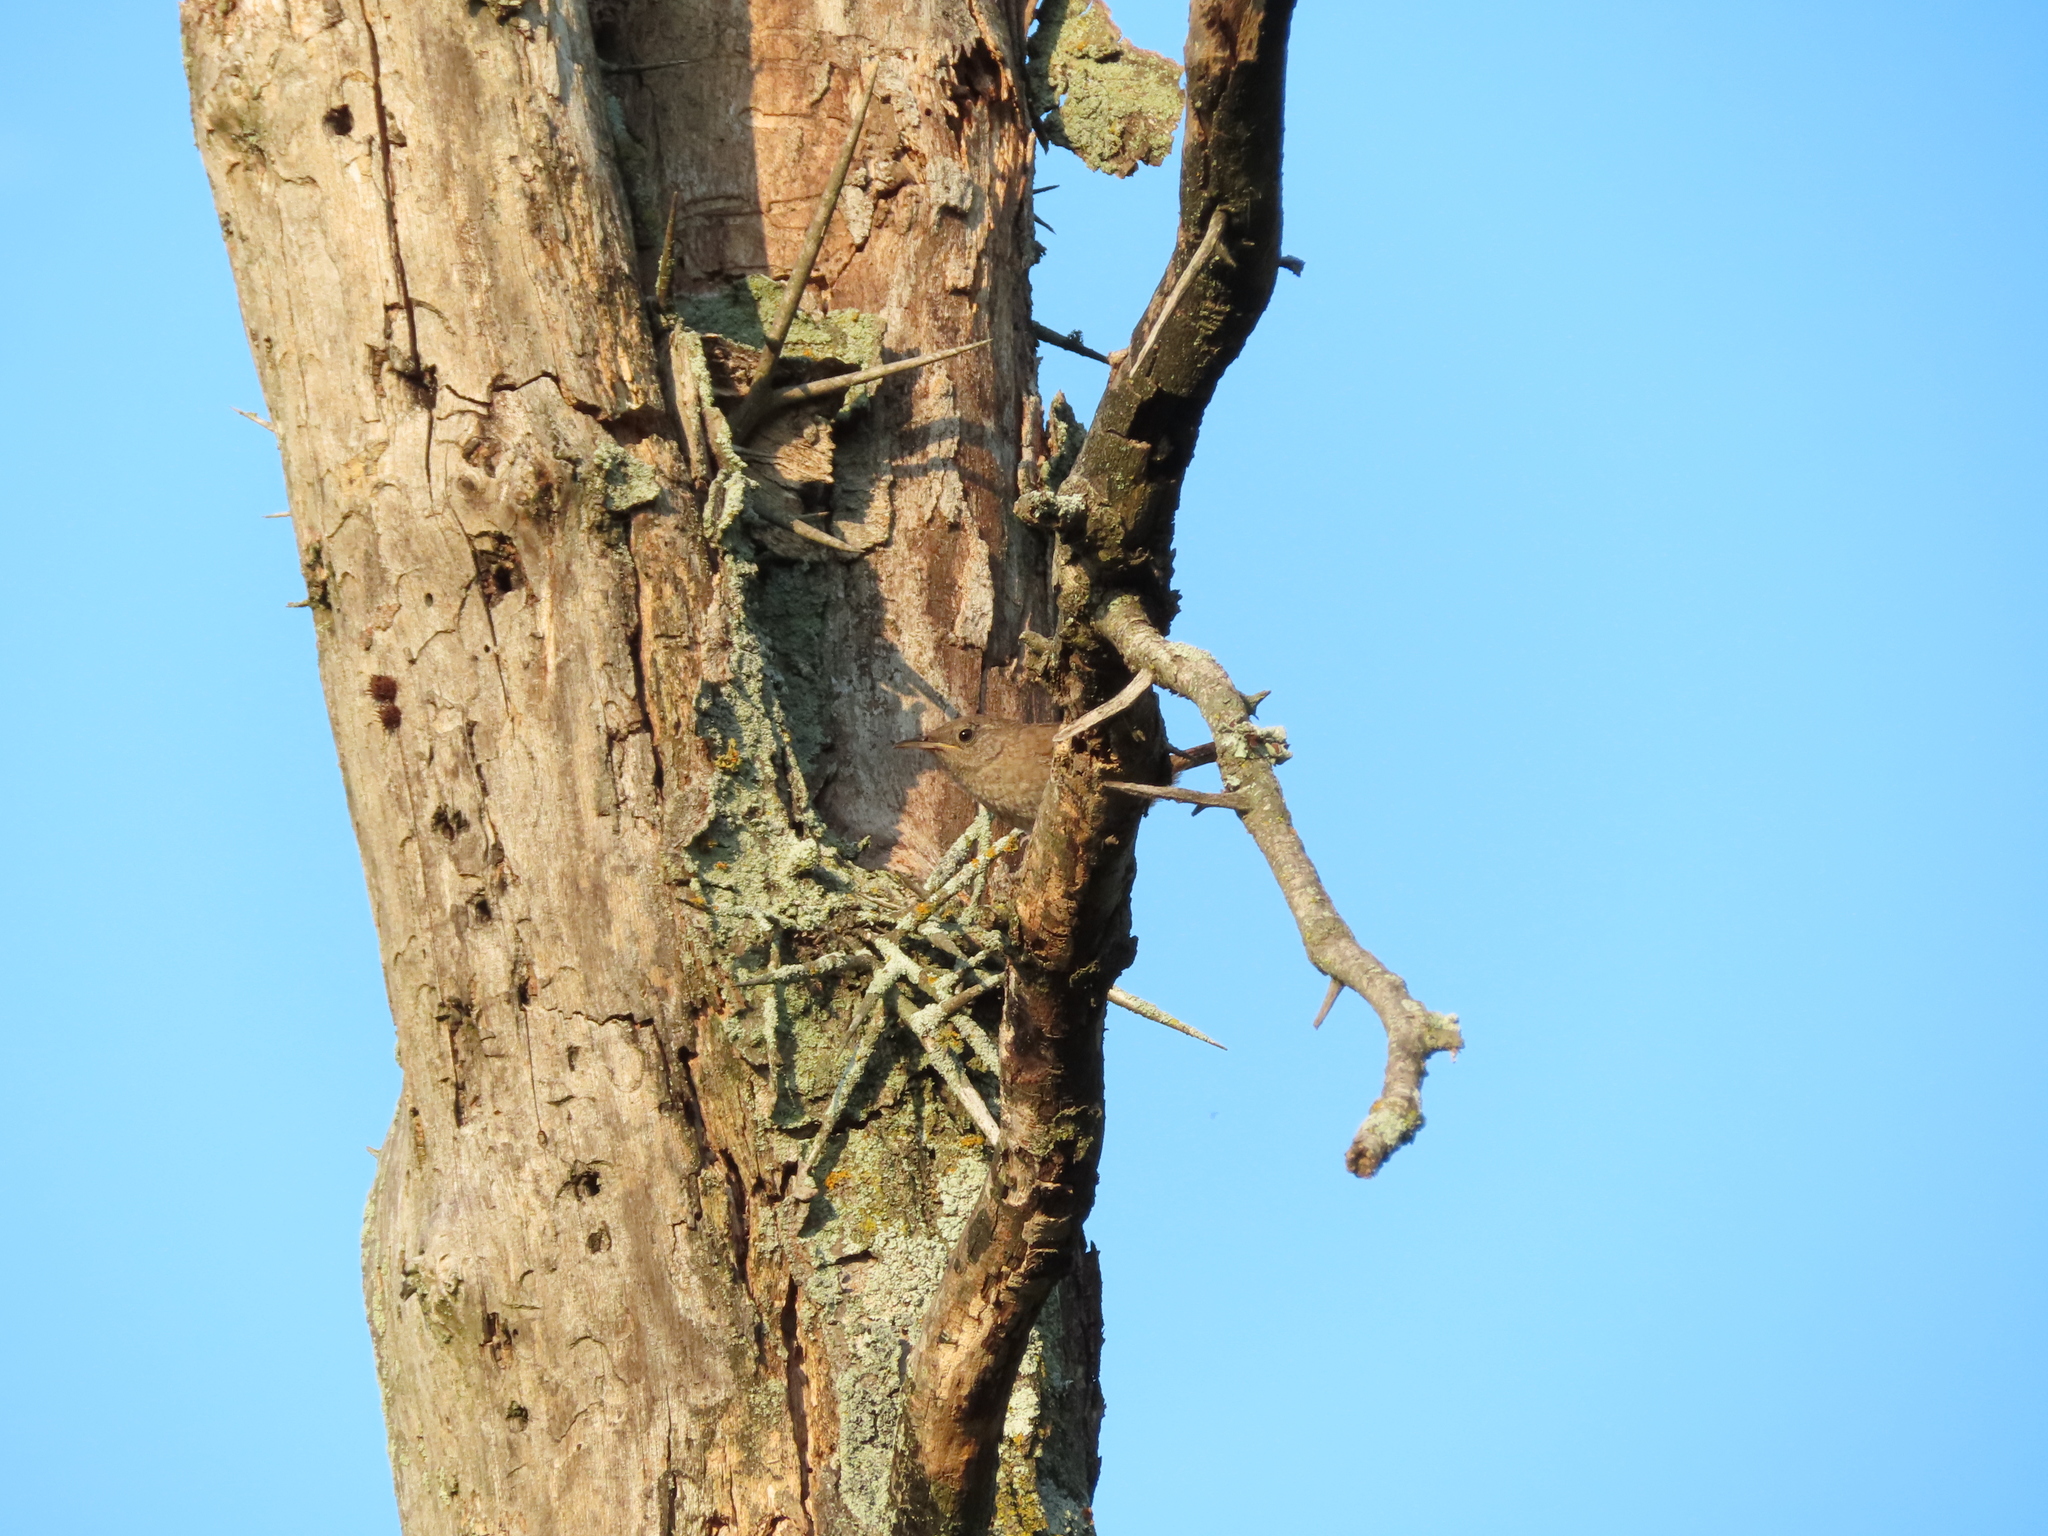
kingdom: Animalia
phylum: Chordata
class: Aves
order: Passeriformes
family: Troglodytidae
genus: Troglodytes
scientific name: Troglodytes aedon
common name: House wren
